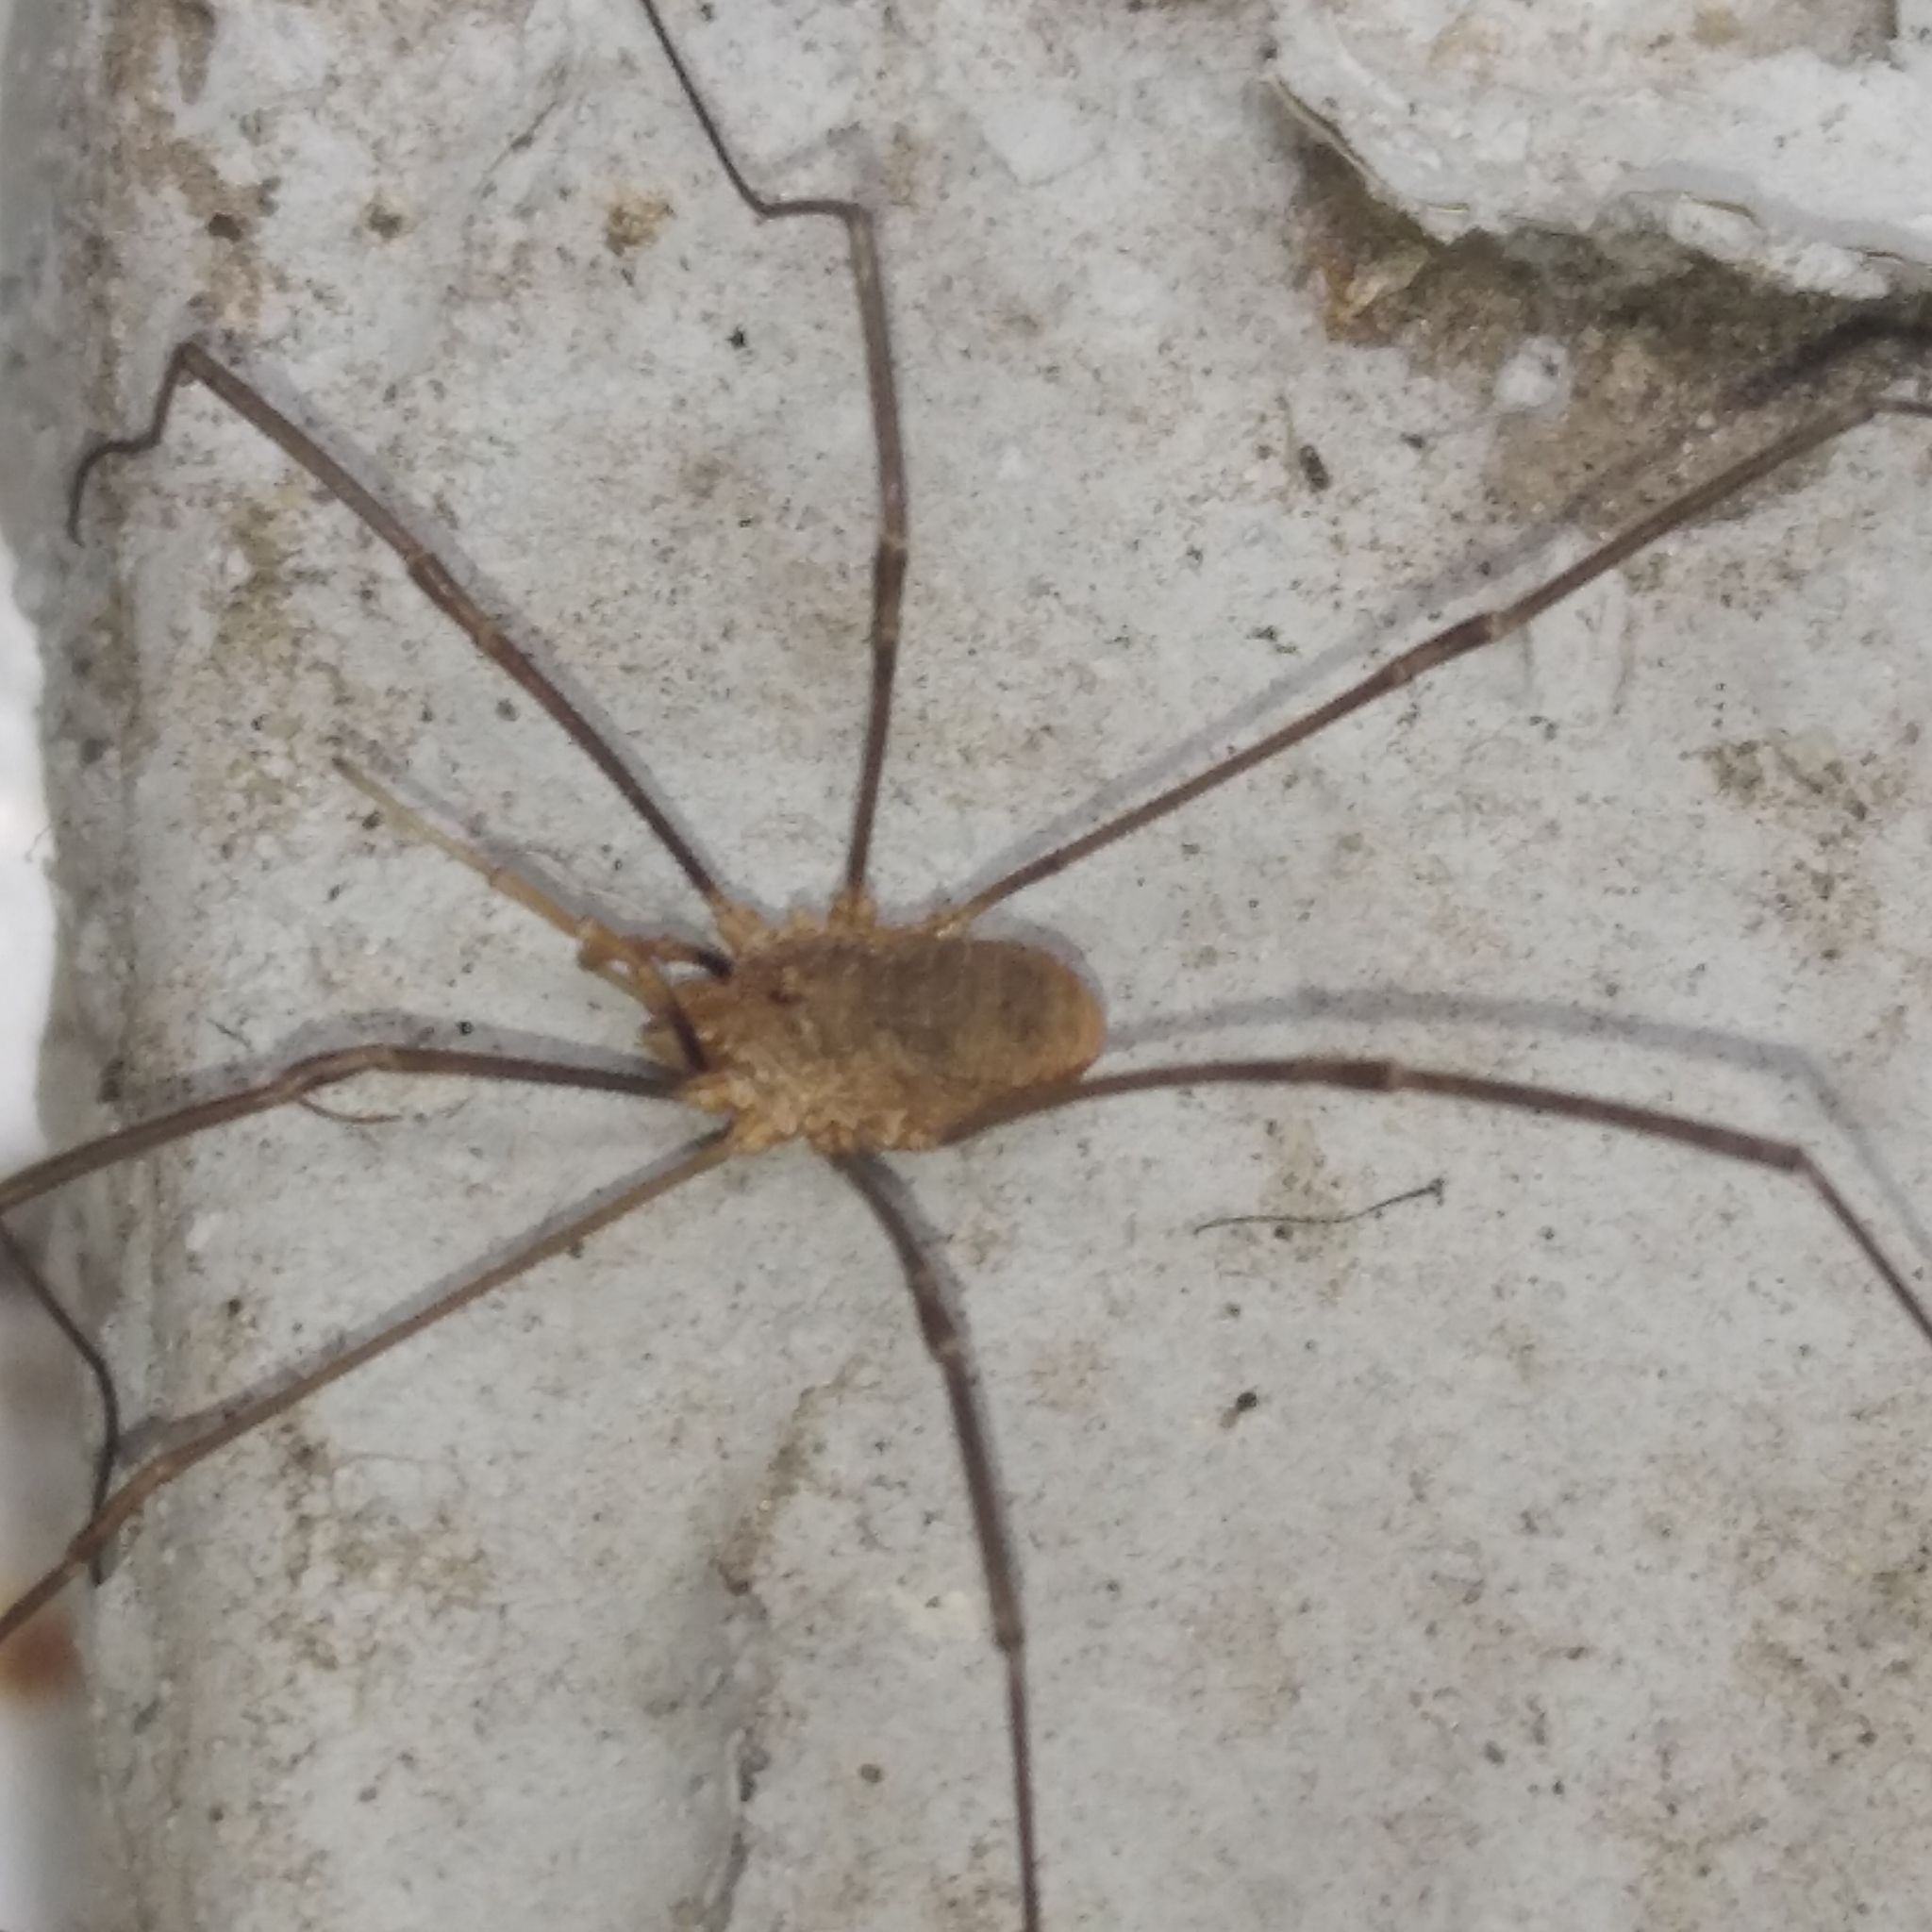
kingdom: Animalia
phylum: Arthropoda
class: Arachnida
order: Opiliones
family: Phalangiidae
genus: Phalangium
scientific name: Phalangium opilio
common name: Daddy longleg
